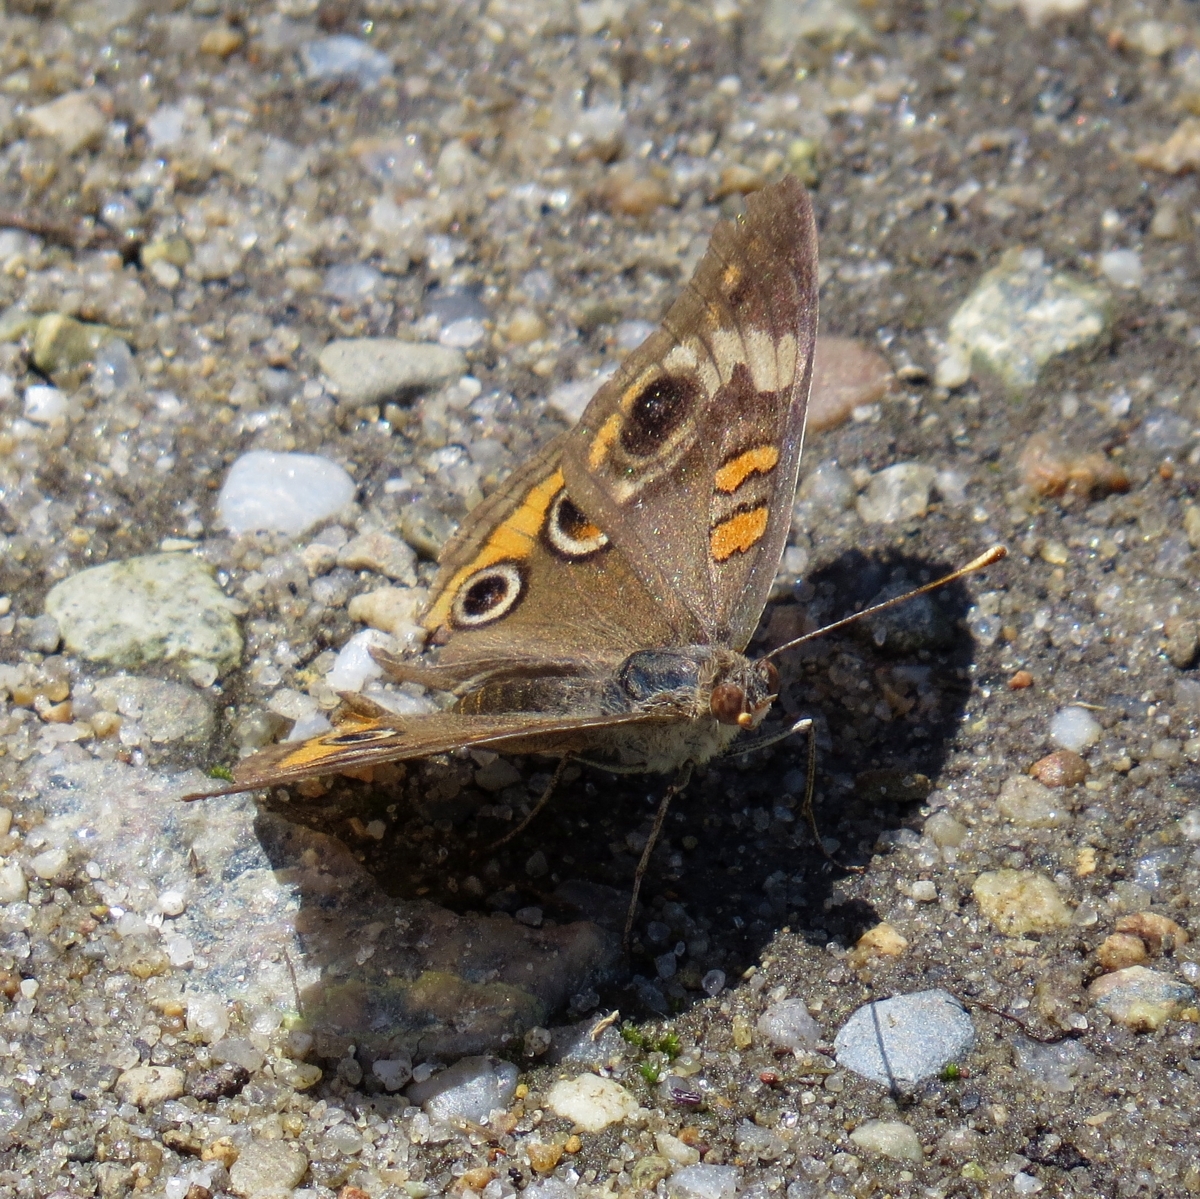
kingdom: Animalia
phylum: Arthropoda
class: Insecta
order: Lepidoptera
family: Nymphalidae
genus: Junonia
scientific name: Junonia coenia
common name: Common buckeye
